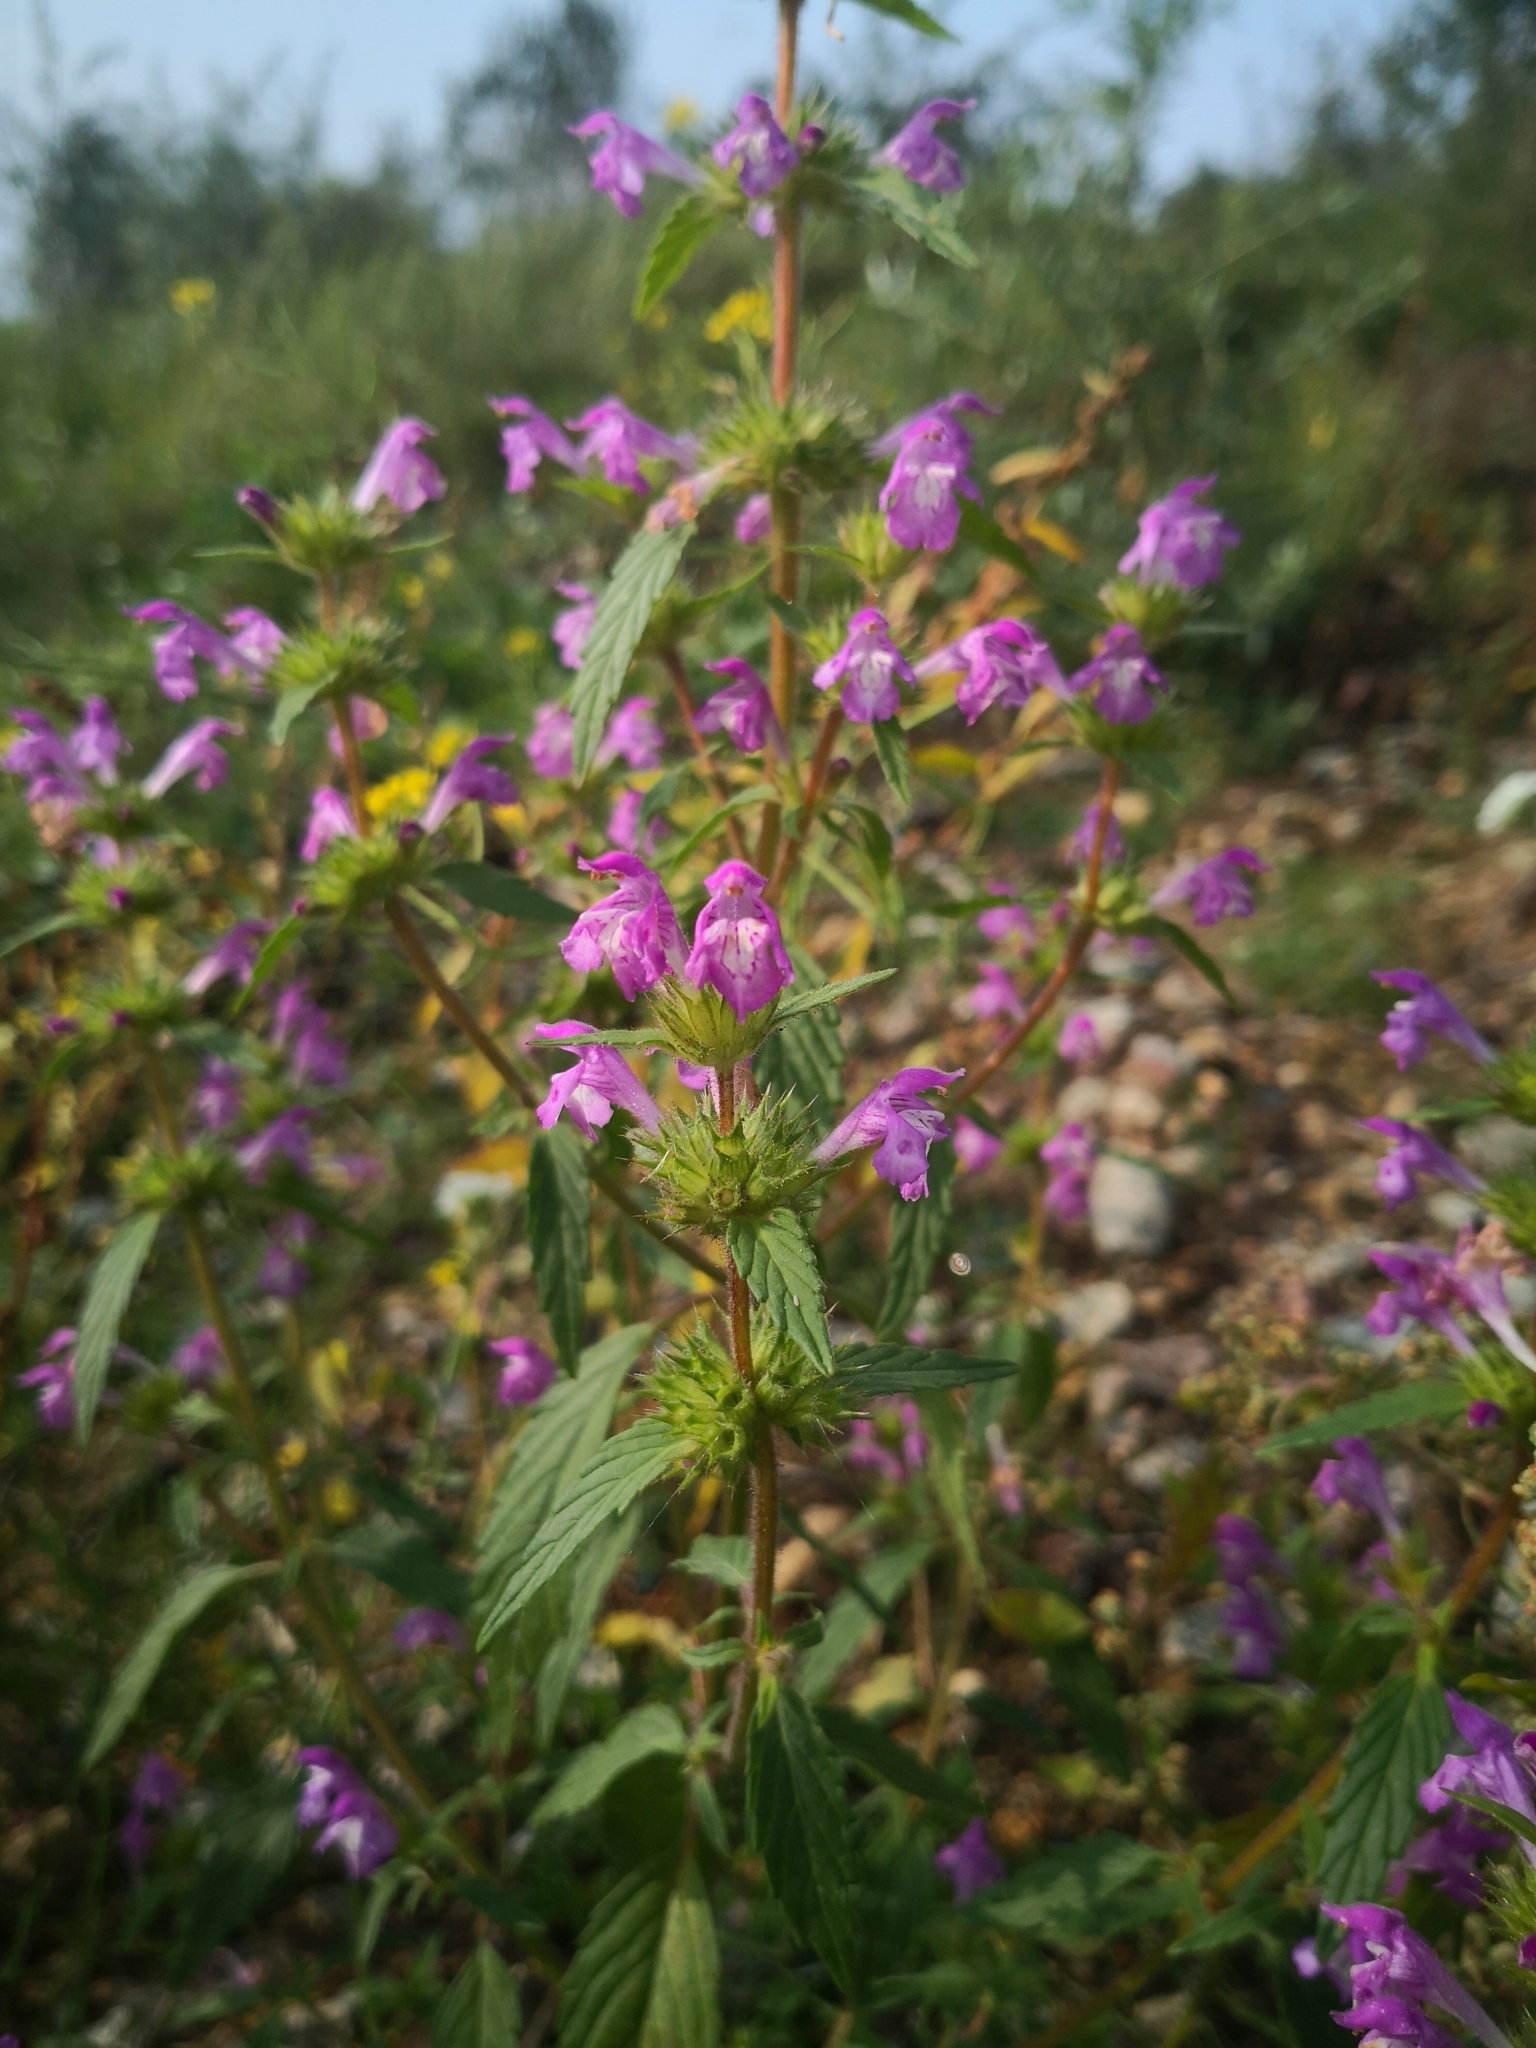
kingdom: Plantae
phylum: Tracheophyta
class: Magnoliopsida
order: Lamiales
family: Lamiaceae
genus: Galeopsis
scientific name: Galeopsis ladanum
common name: Broad-leaved hemp-nettle
